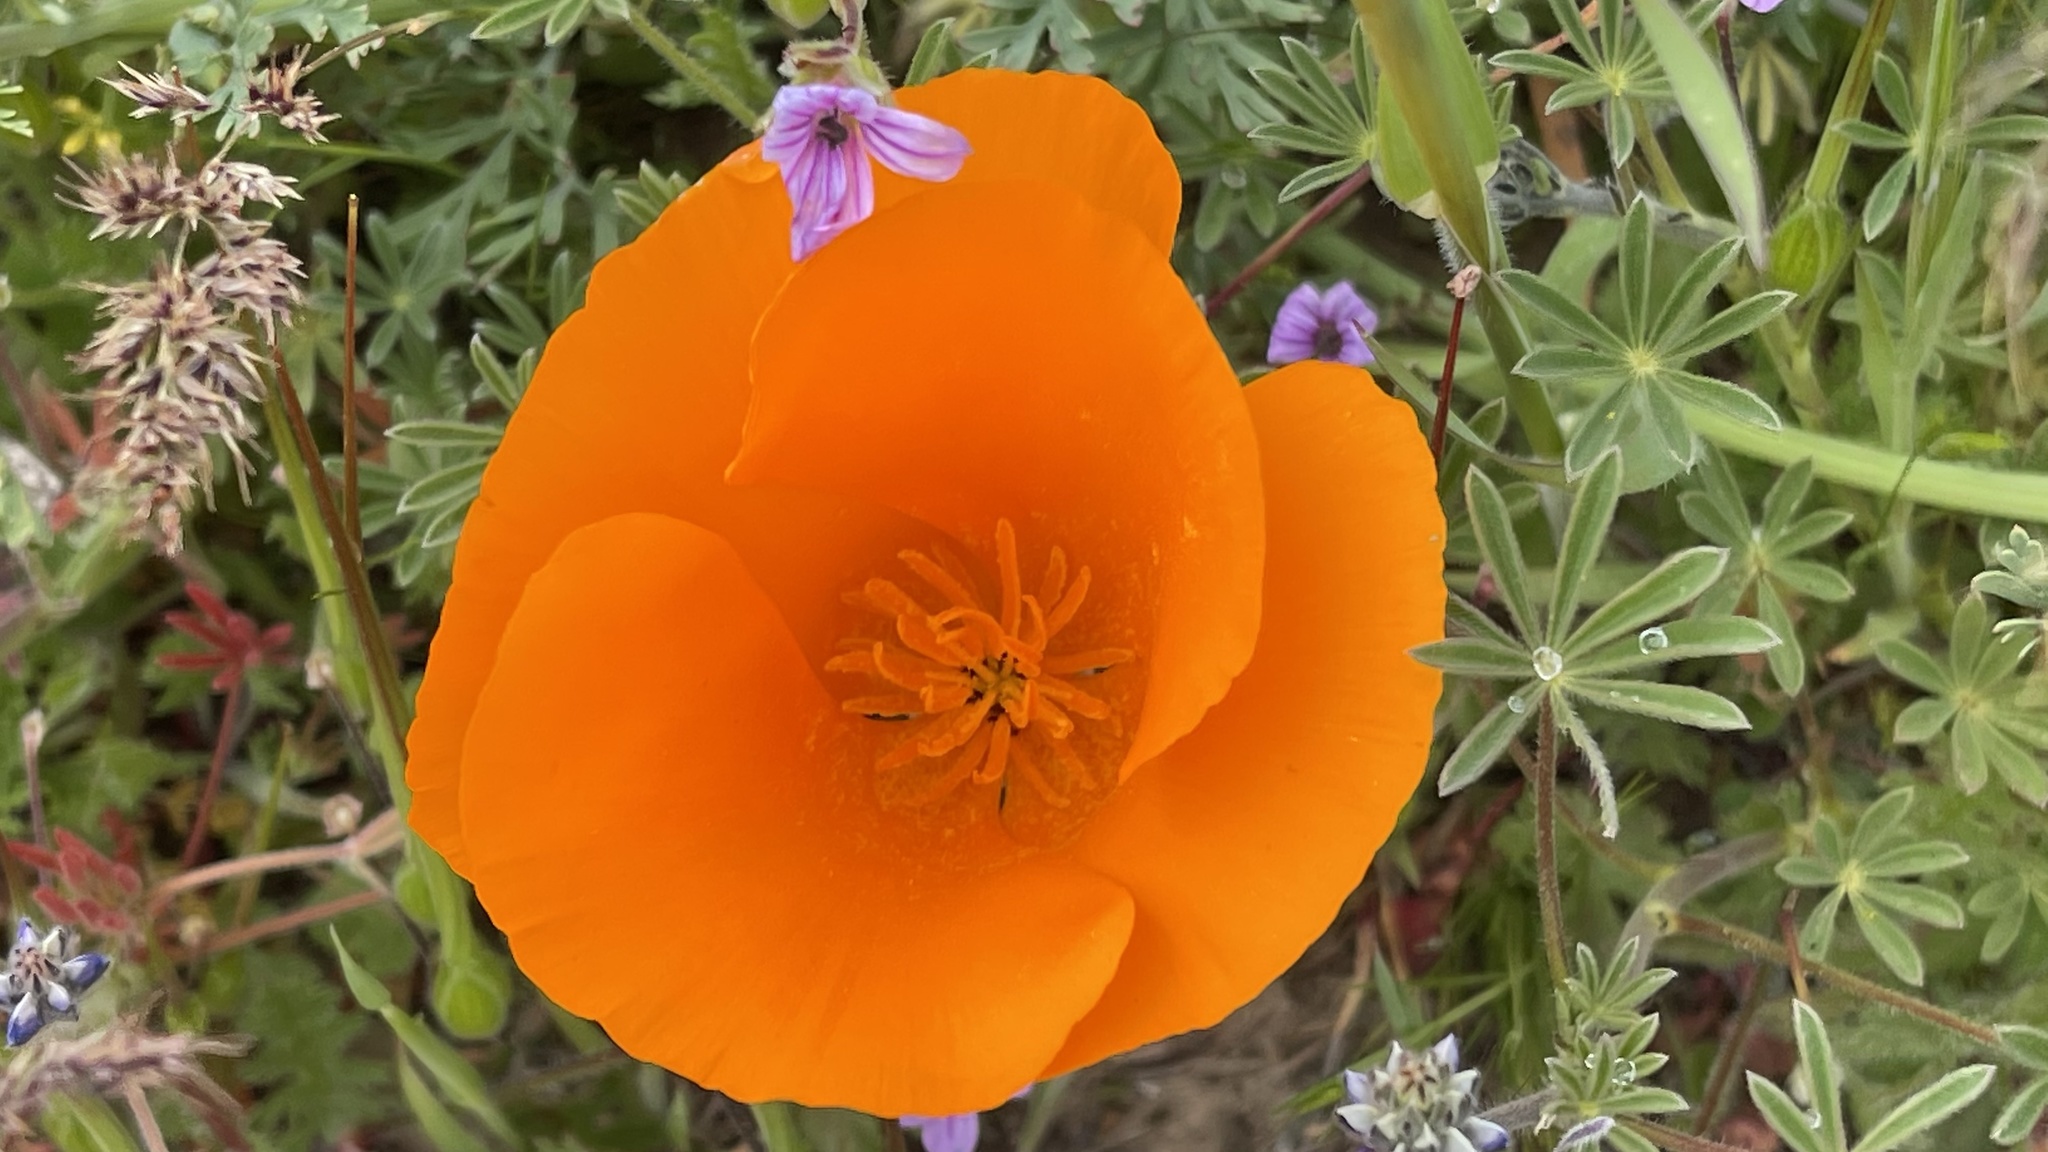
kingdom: Plantae
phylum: Tracheophyta
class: Magnoliopsida
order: Ranunculales
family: Papaveraceae
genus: Eschscholzia
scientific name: Eschscholzia californica
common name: California poppy
